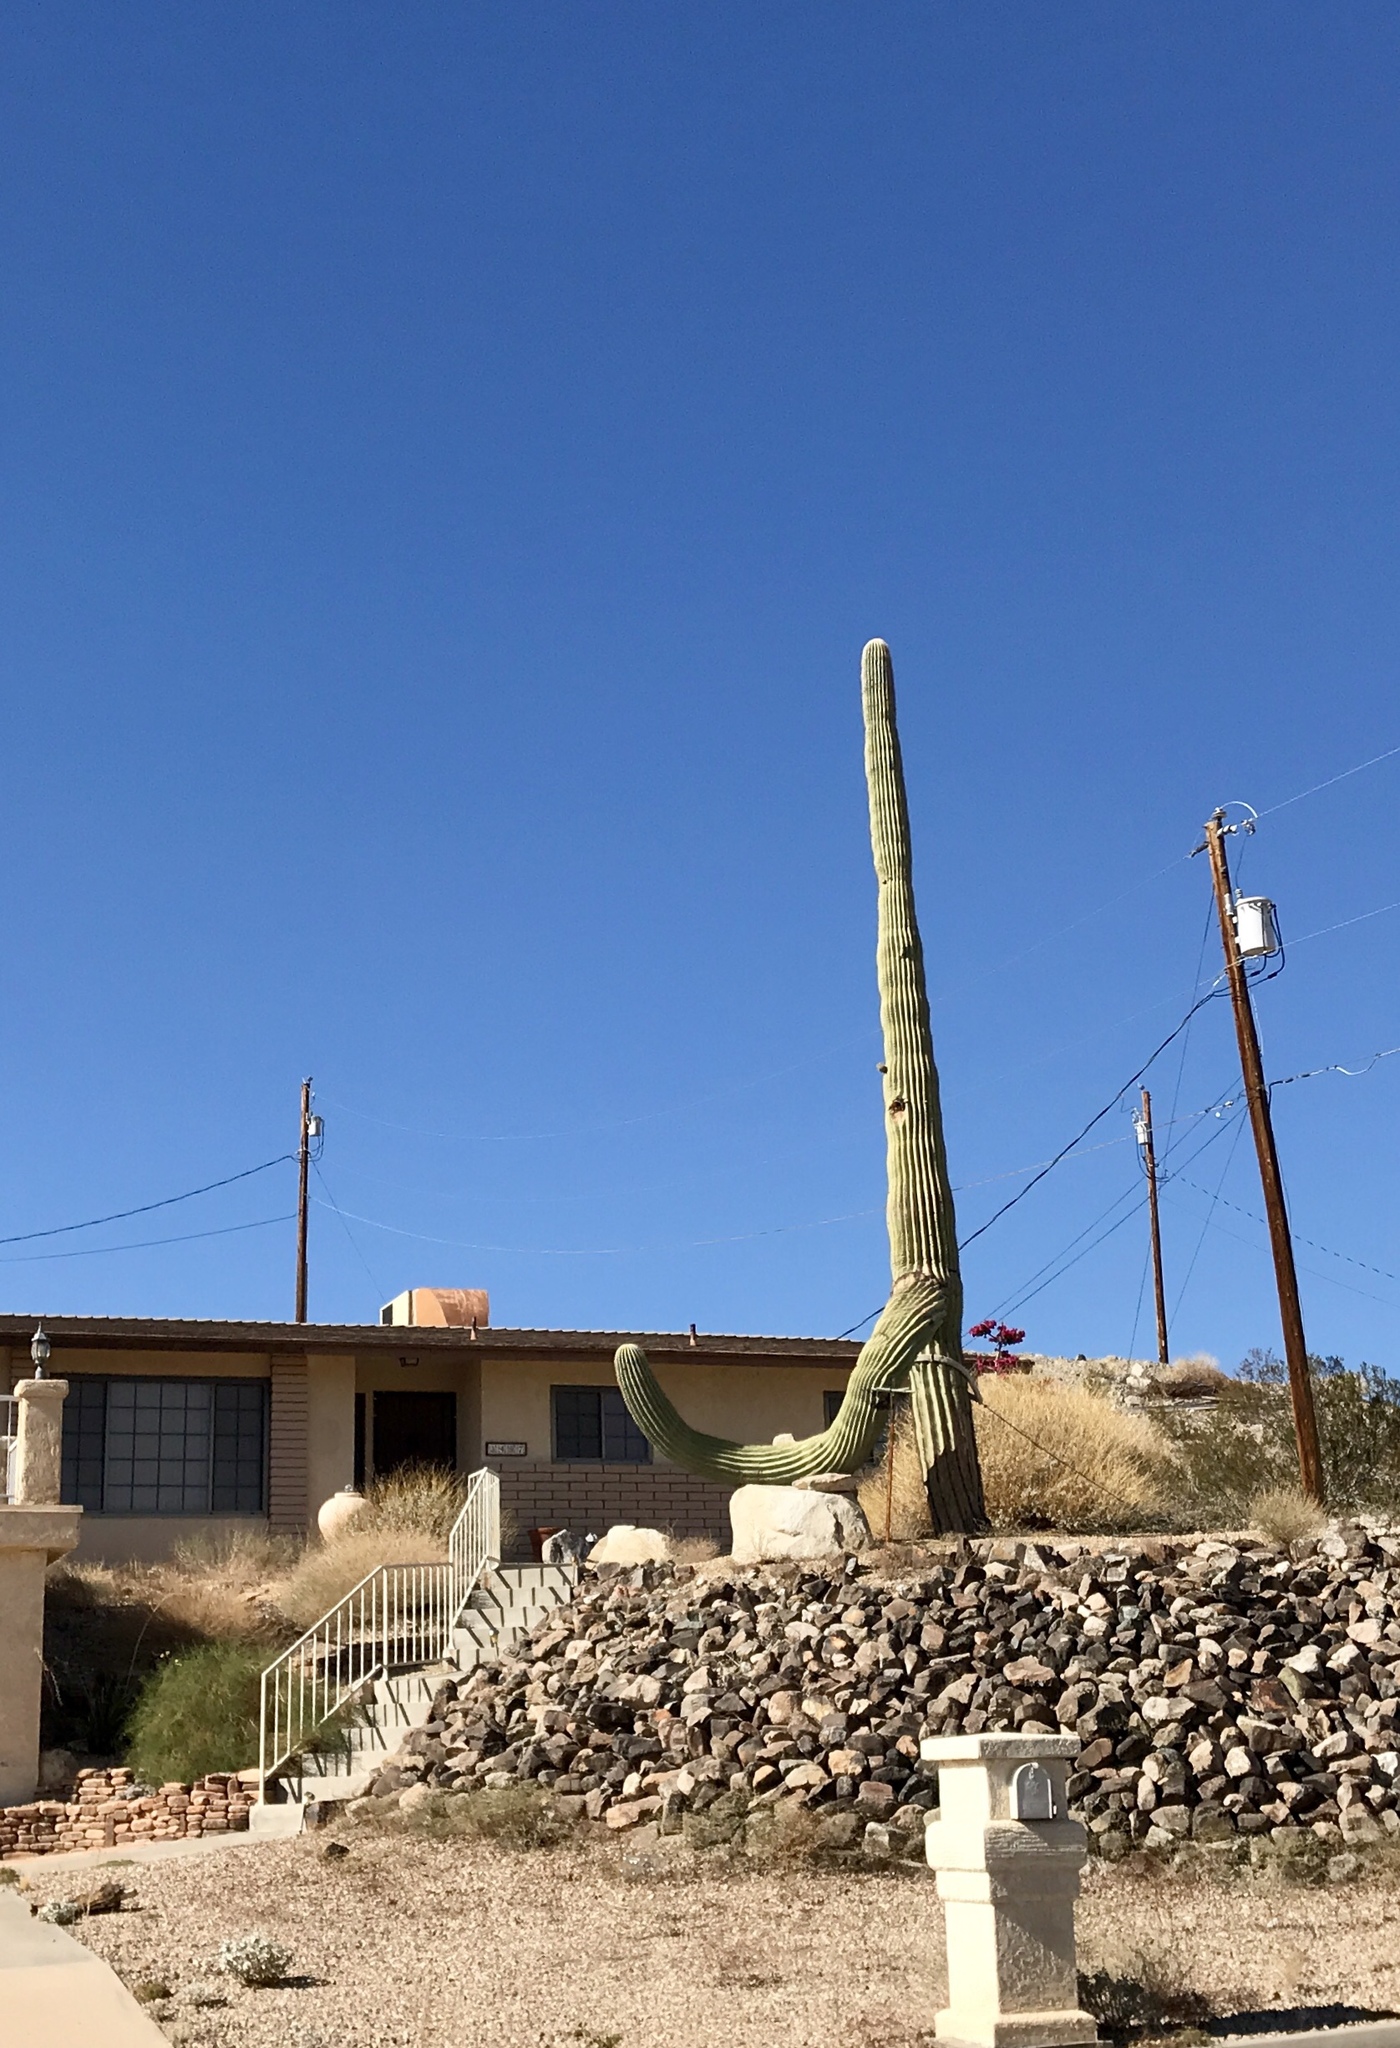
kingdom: Plantae
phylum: Tracheophyta
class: Magnoliopsida
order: Caryophyllales
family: Cactaceae
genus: Carnegiea
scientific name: Carnegiea gigantea
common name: Saguaro
